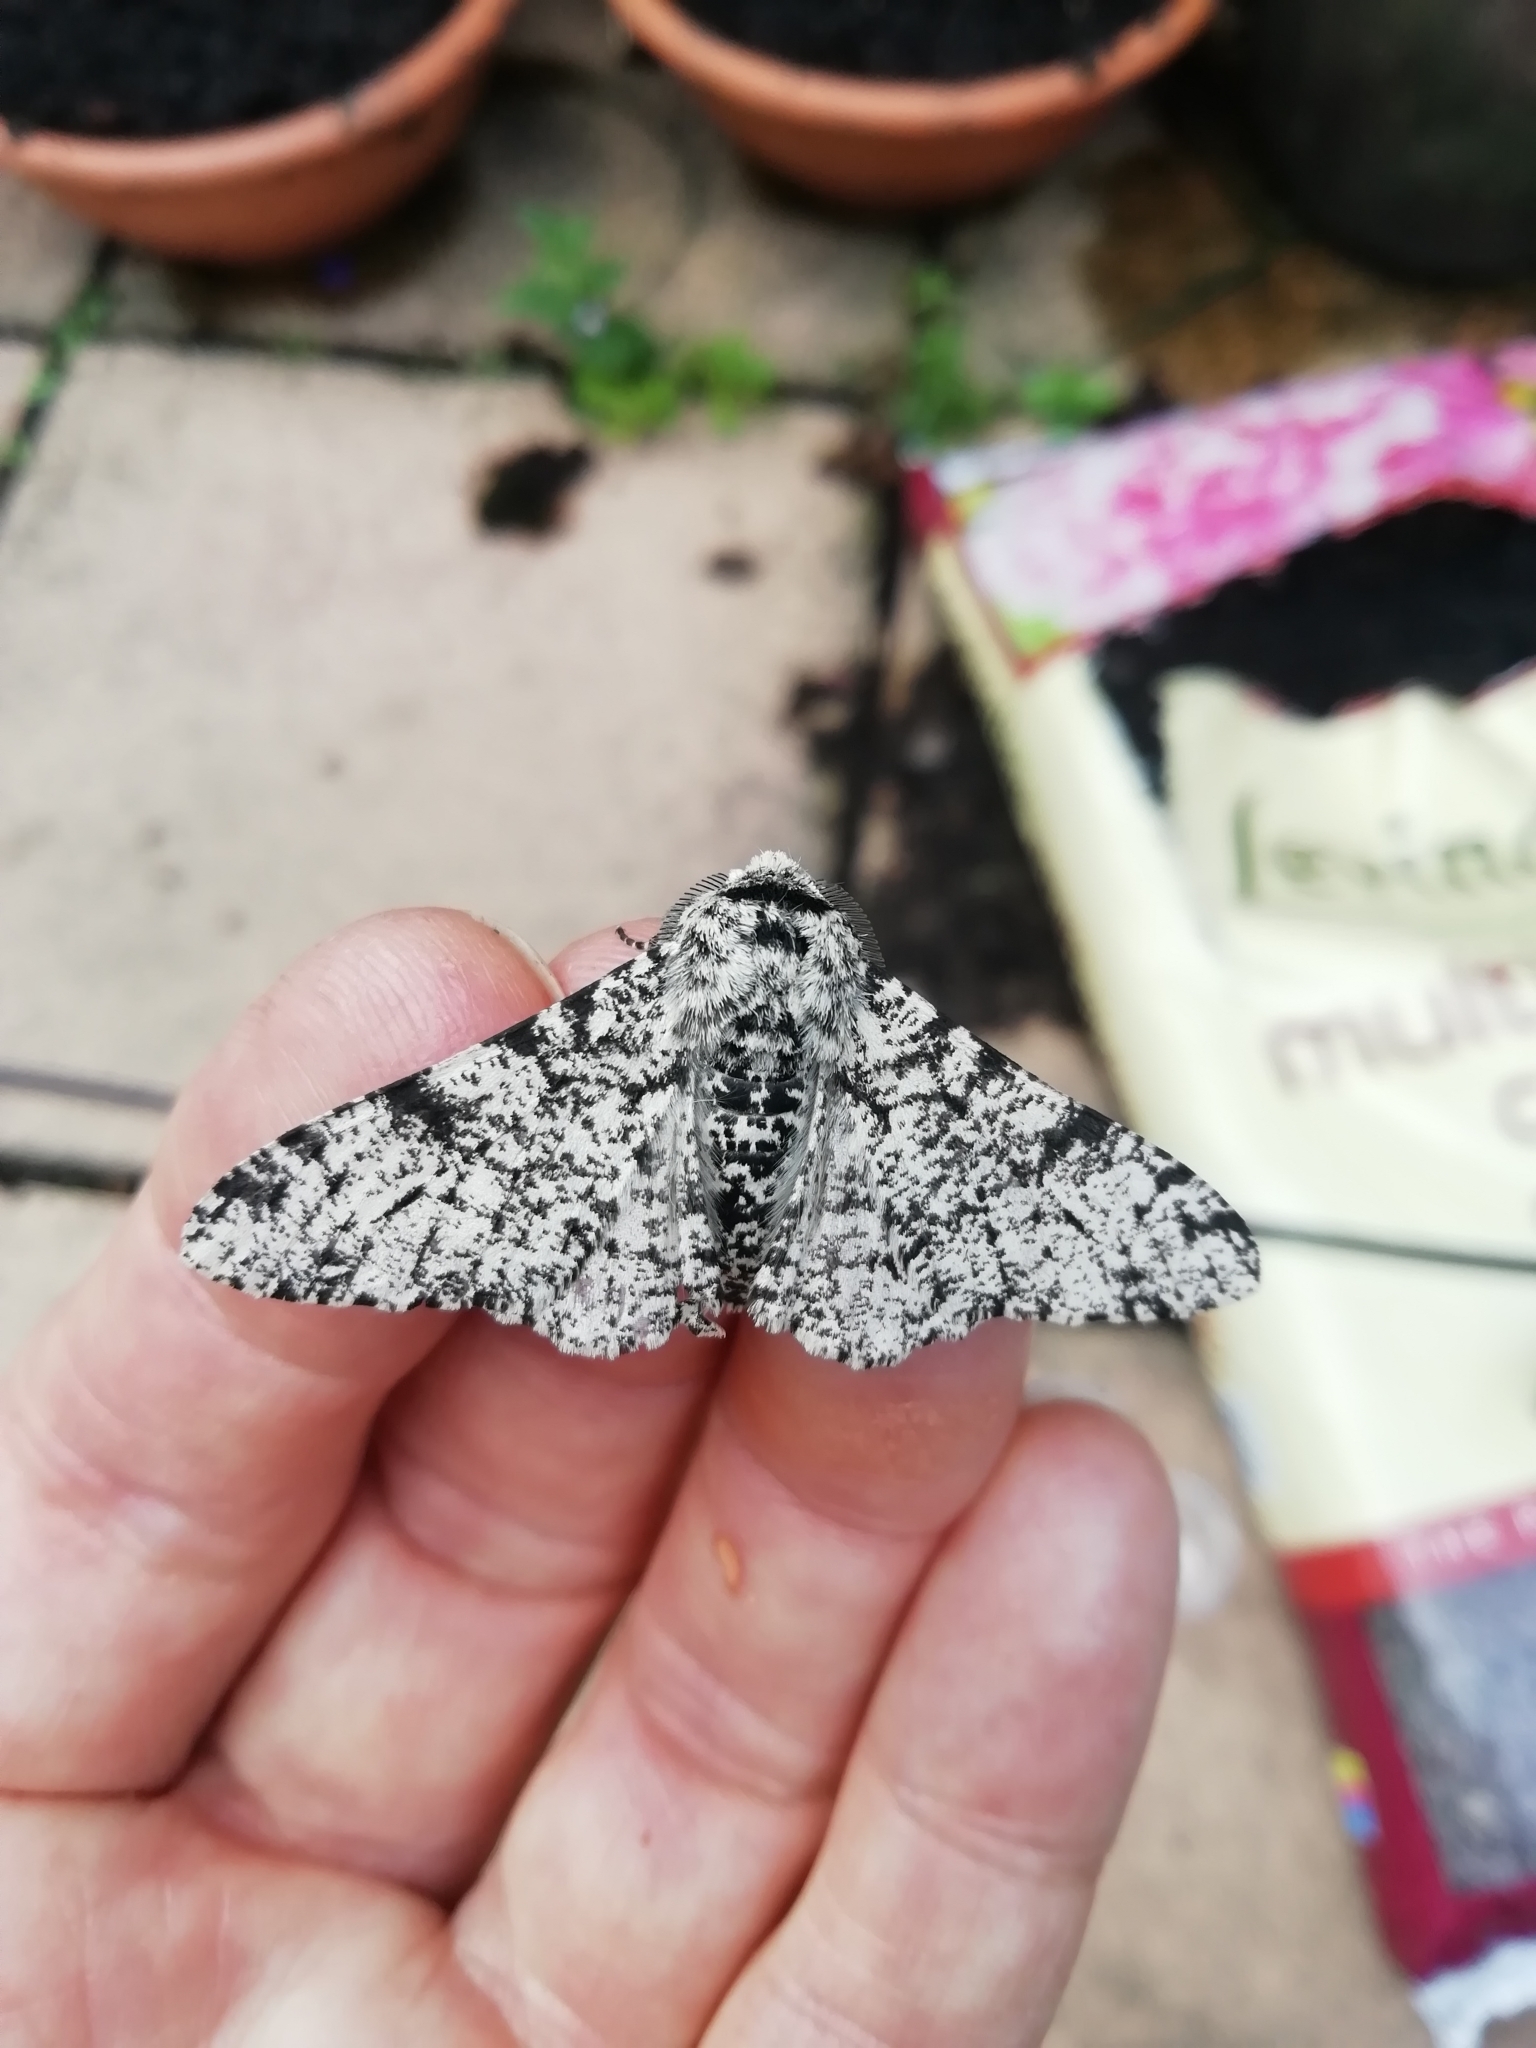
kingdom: Animalia
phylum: Arthropoda
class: Insecta
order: Lepidoptera
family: Geometridae
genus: Biston
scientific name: Biston betularia
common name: Peppered moth
